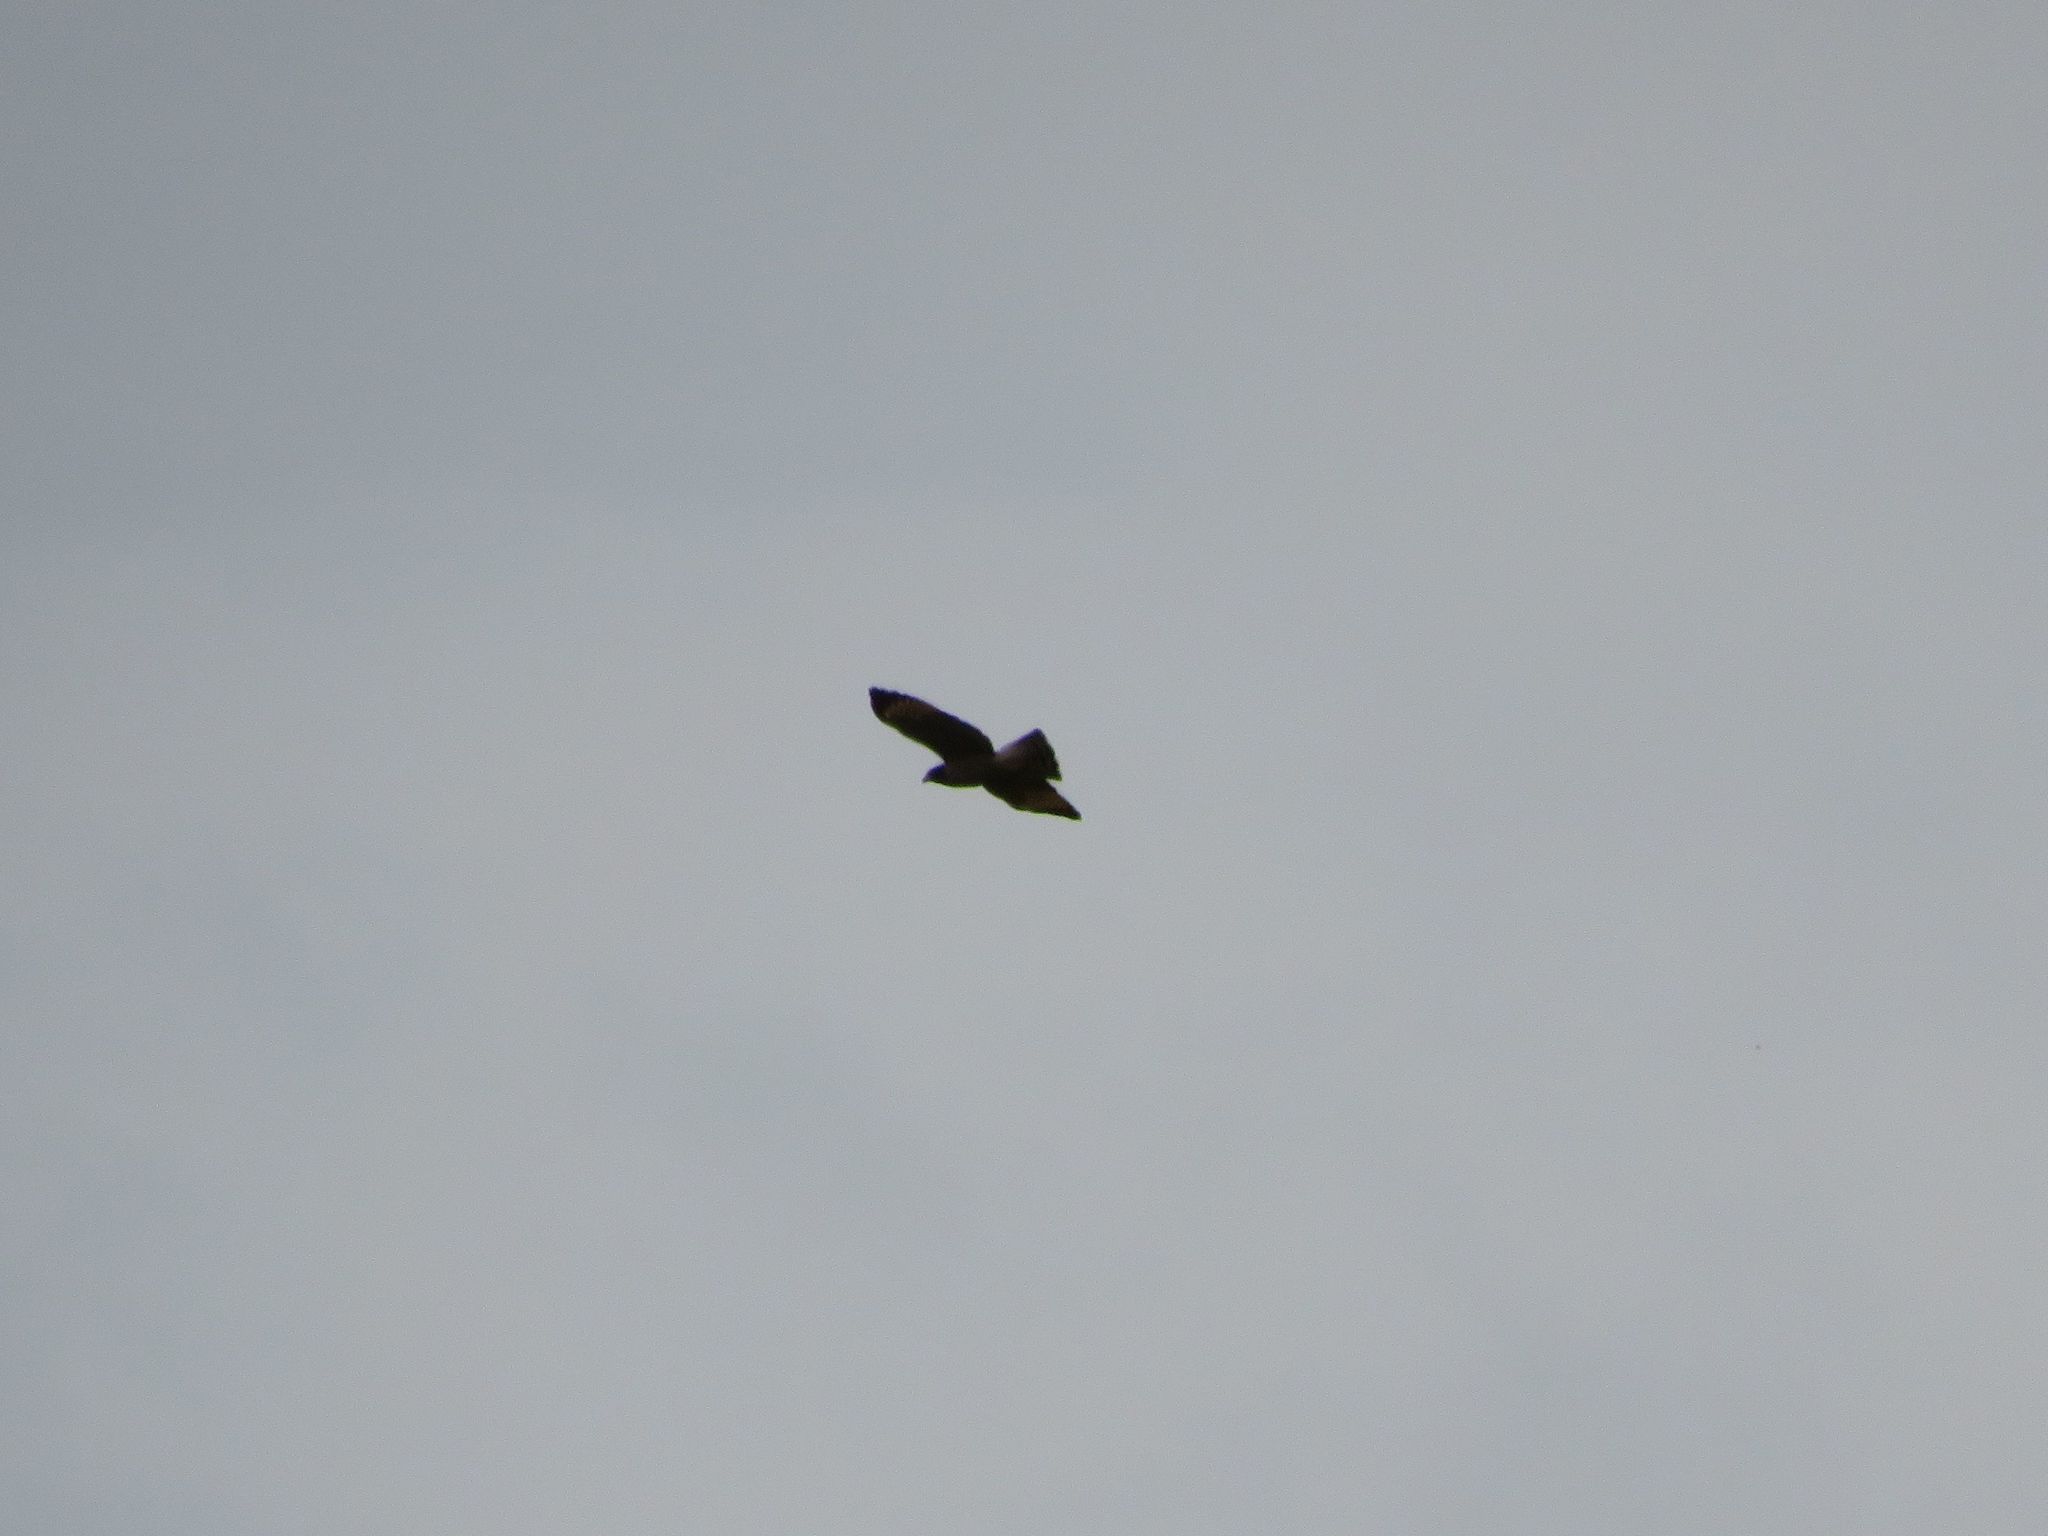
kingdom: Animalia
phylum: Chordata
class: Aves
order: Accipitriformes
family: Accipitridae
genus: Rupornis
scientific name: Rupornis magnirostris
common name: Roadside hawk
